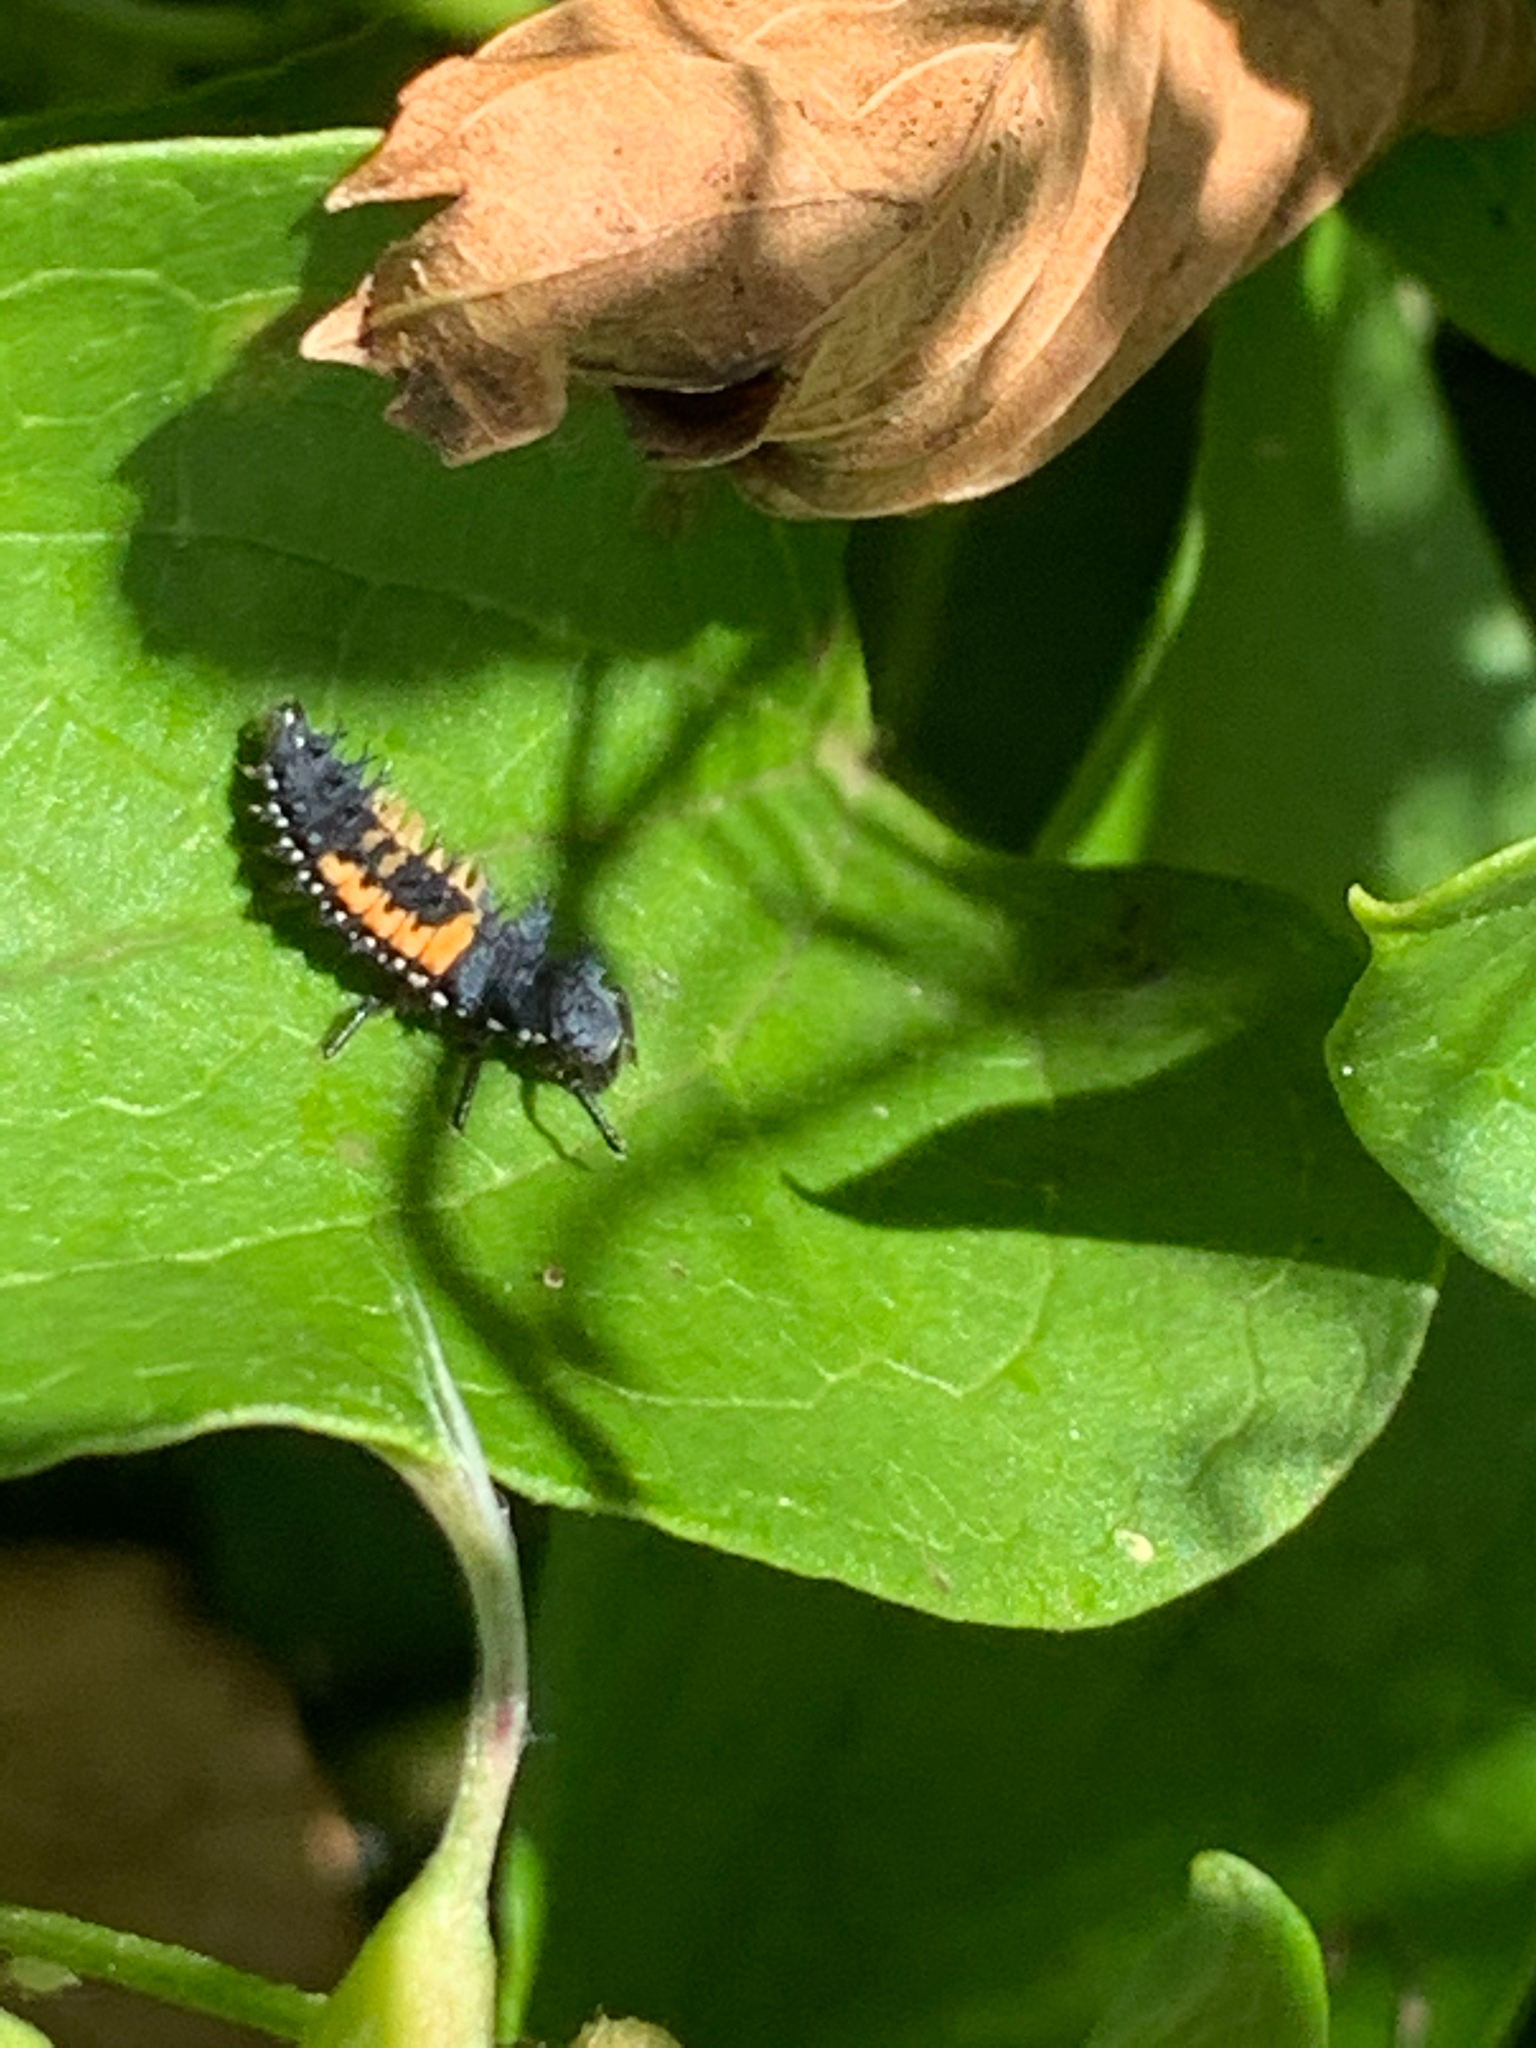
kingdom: Animalia
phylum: Arthropoda
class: Insecta
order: Coleoptera
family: Coccinellidae
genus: Harmonia
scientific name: Harmonia axyridis
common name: Harlequin ladybird
